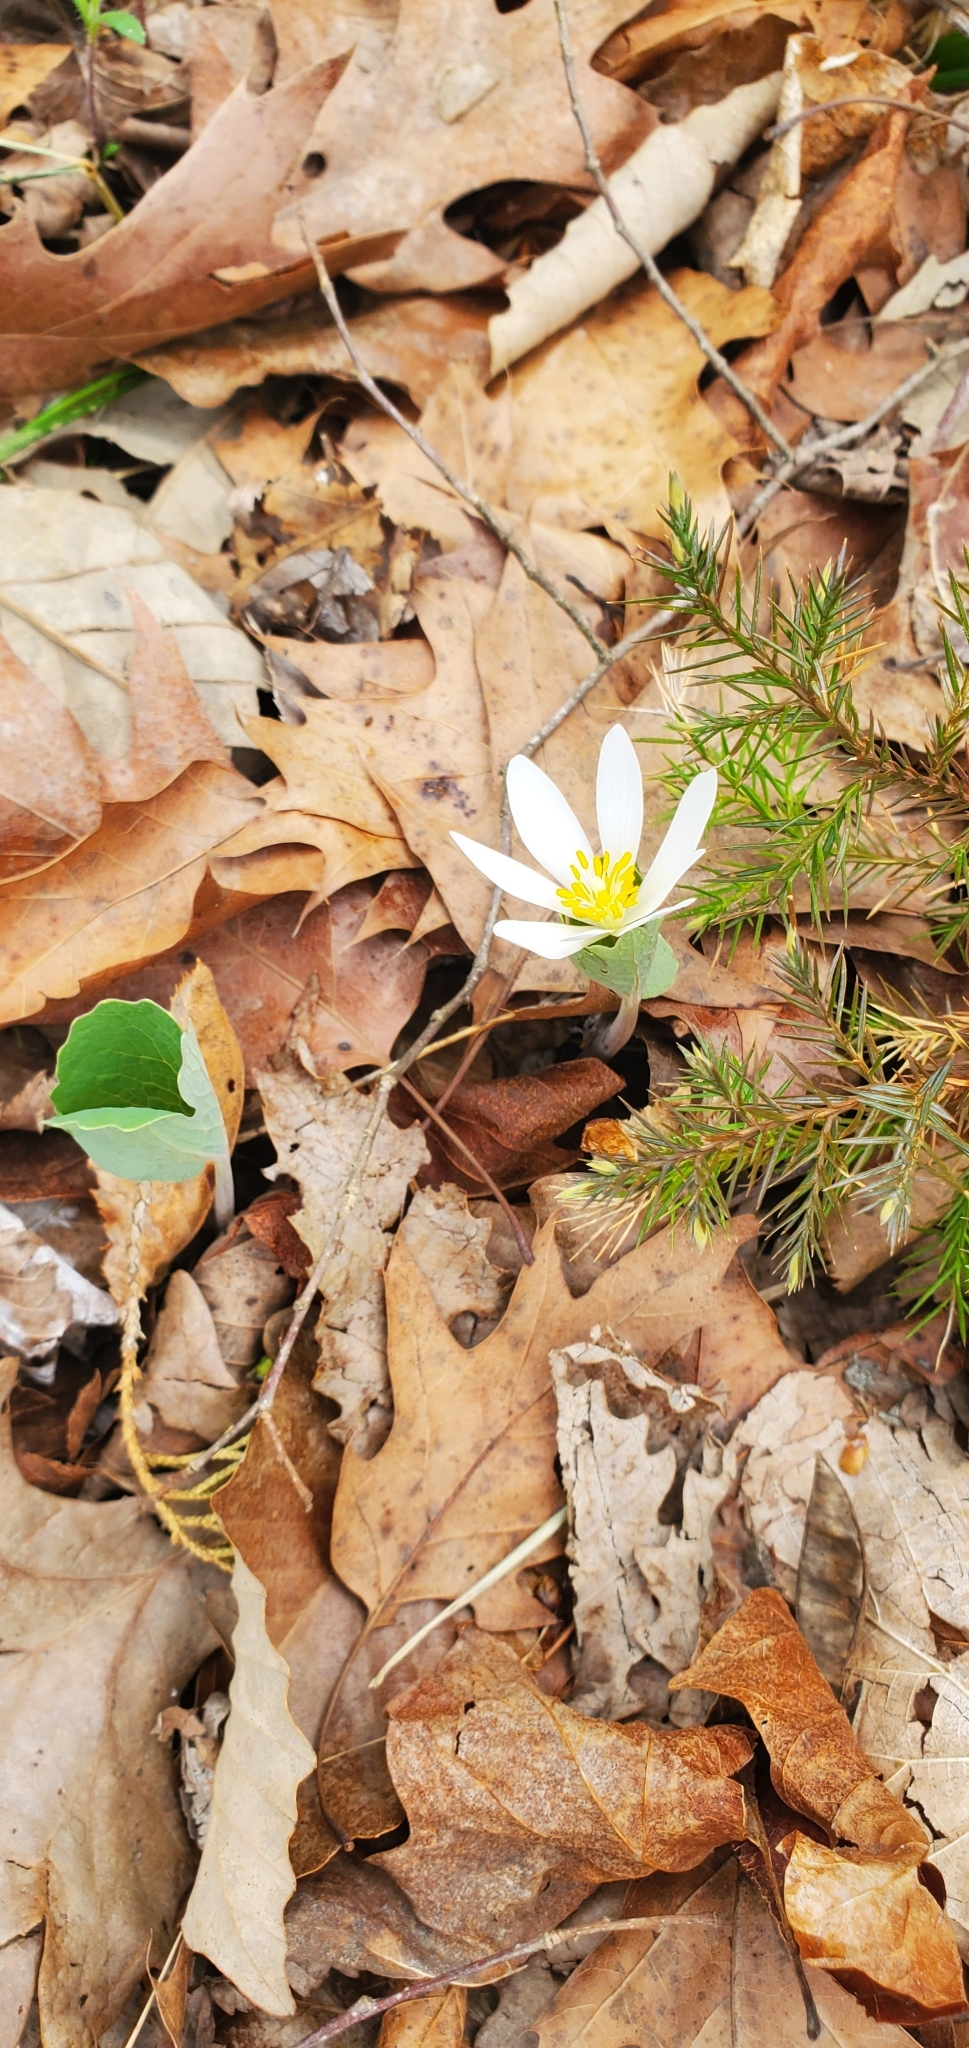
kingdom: Plantae
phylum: Tracheophyta
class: Magnoliopsida
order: Ranunculales
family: Papaveraceae
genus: Sanguinaria
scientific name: Sanguinaria canadensis
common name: Bloodroot
